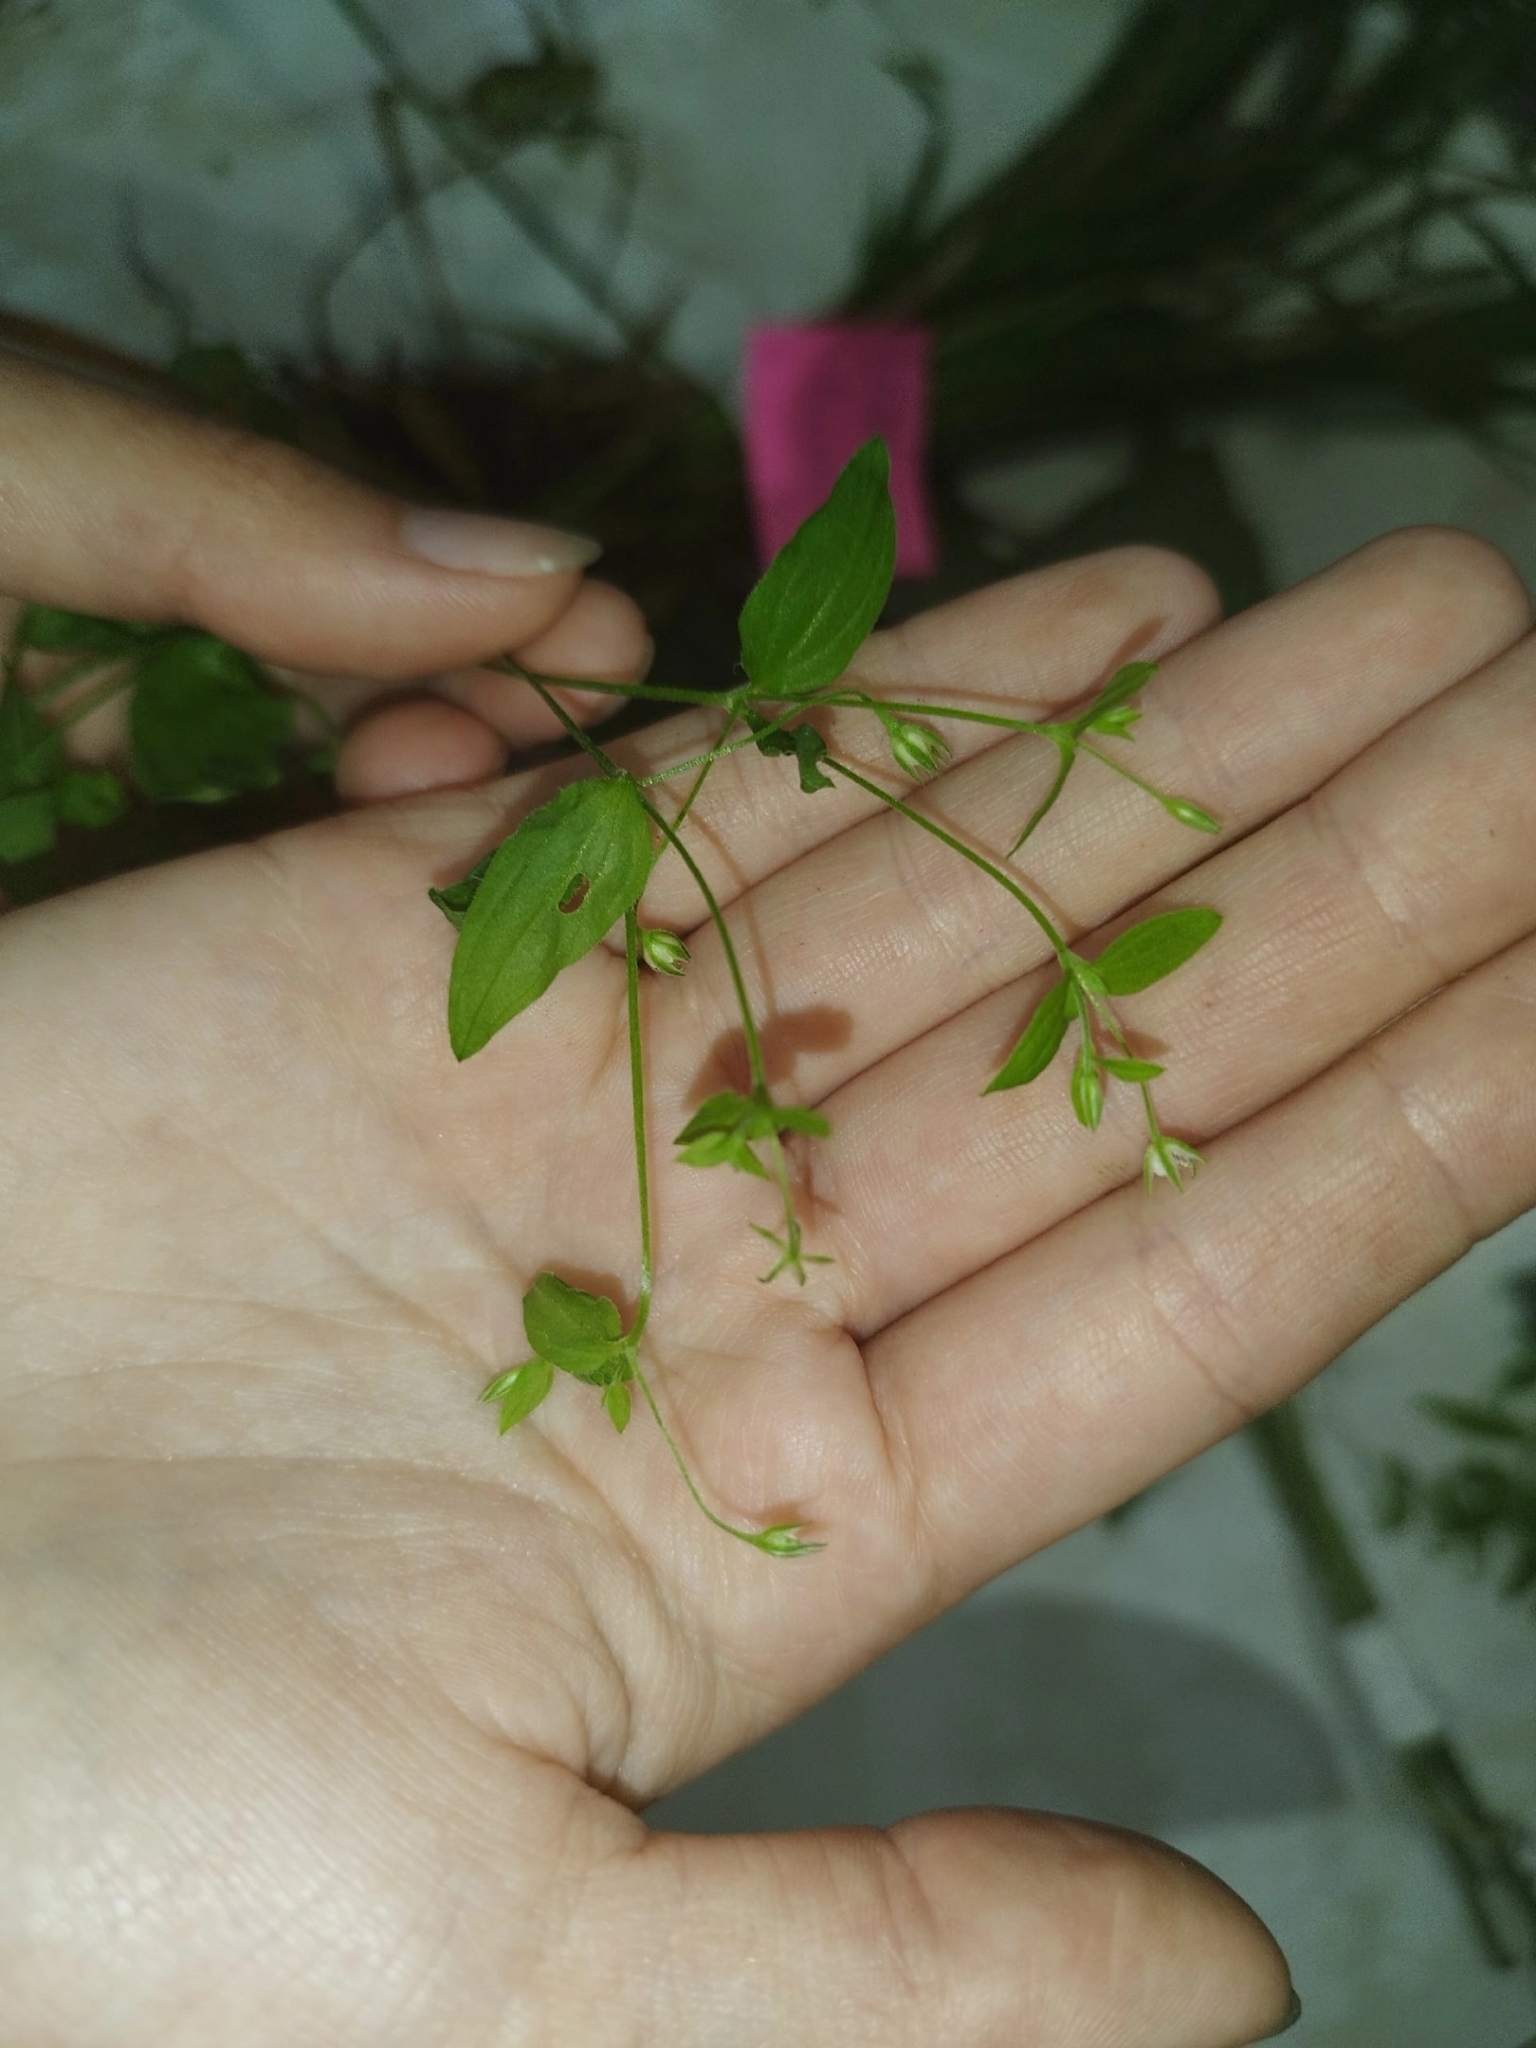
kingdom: Plantae
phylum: Tracheophyta
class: Magnoliopsida
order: Caryophyllales
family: Caryophyllaceae
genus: Moehringia
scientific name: Moehringia trinervia
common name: Three-nerved sandwort
